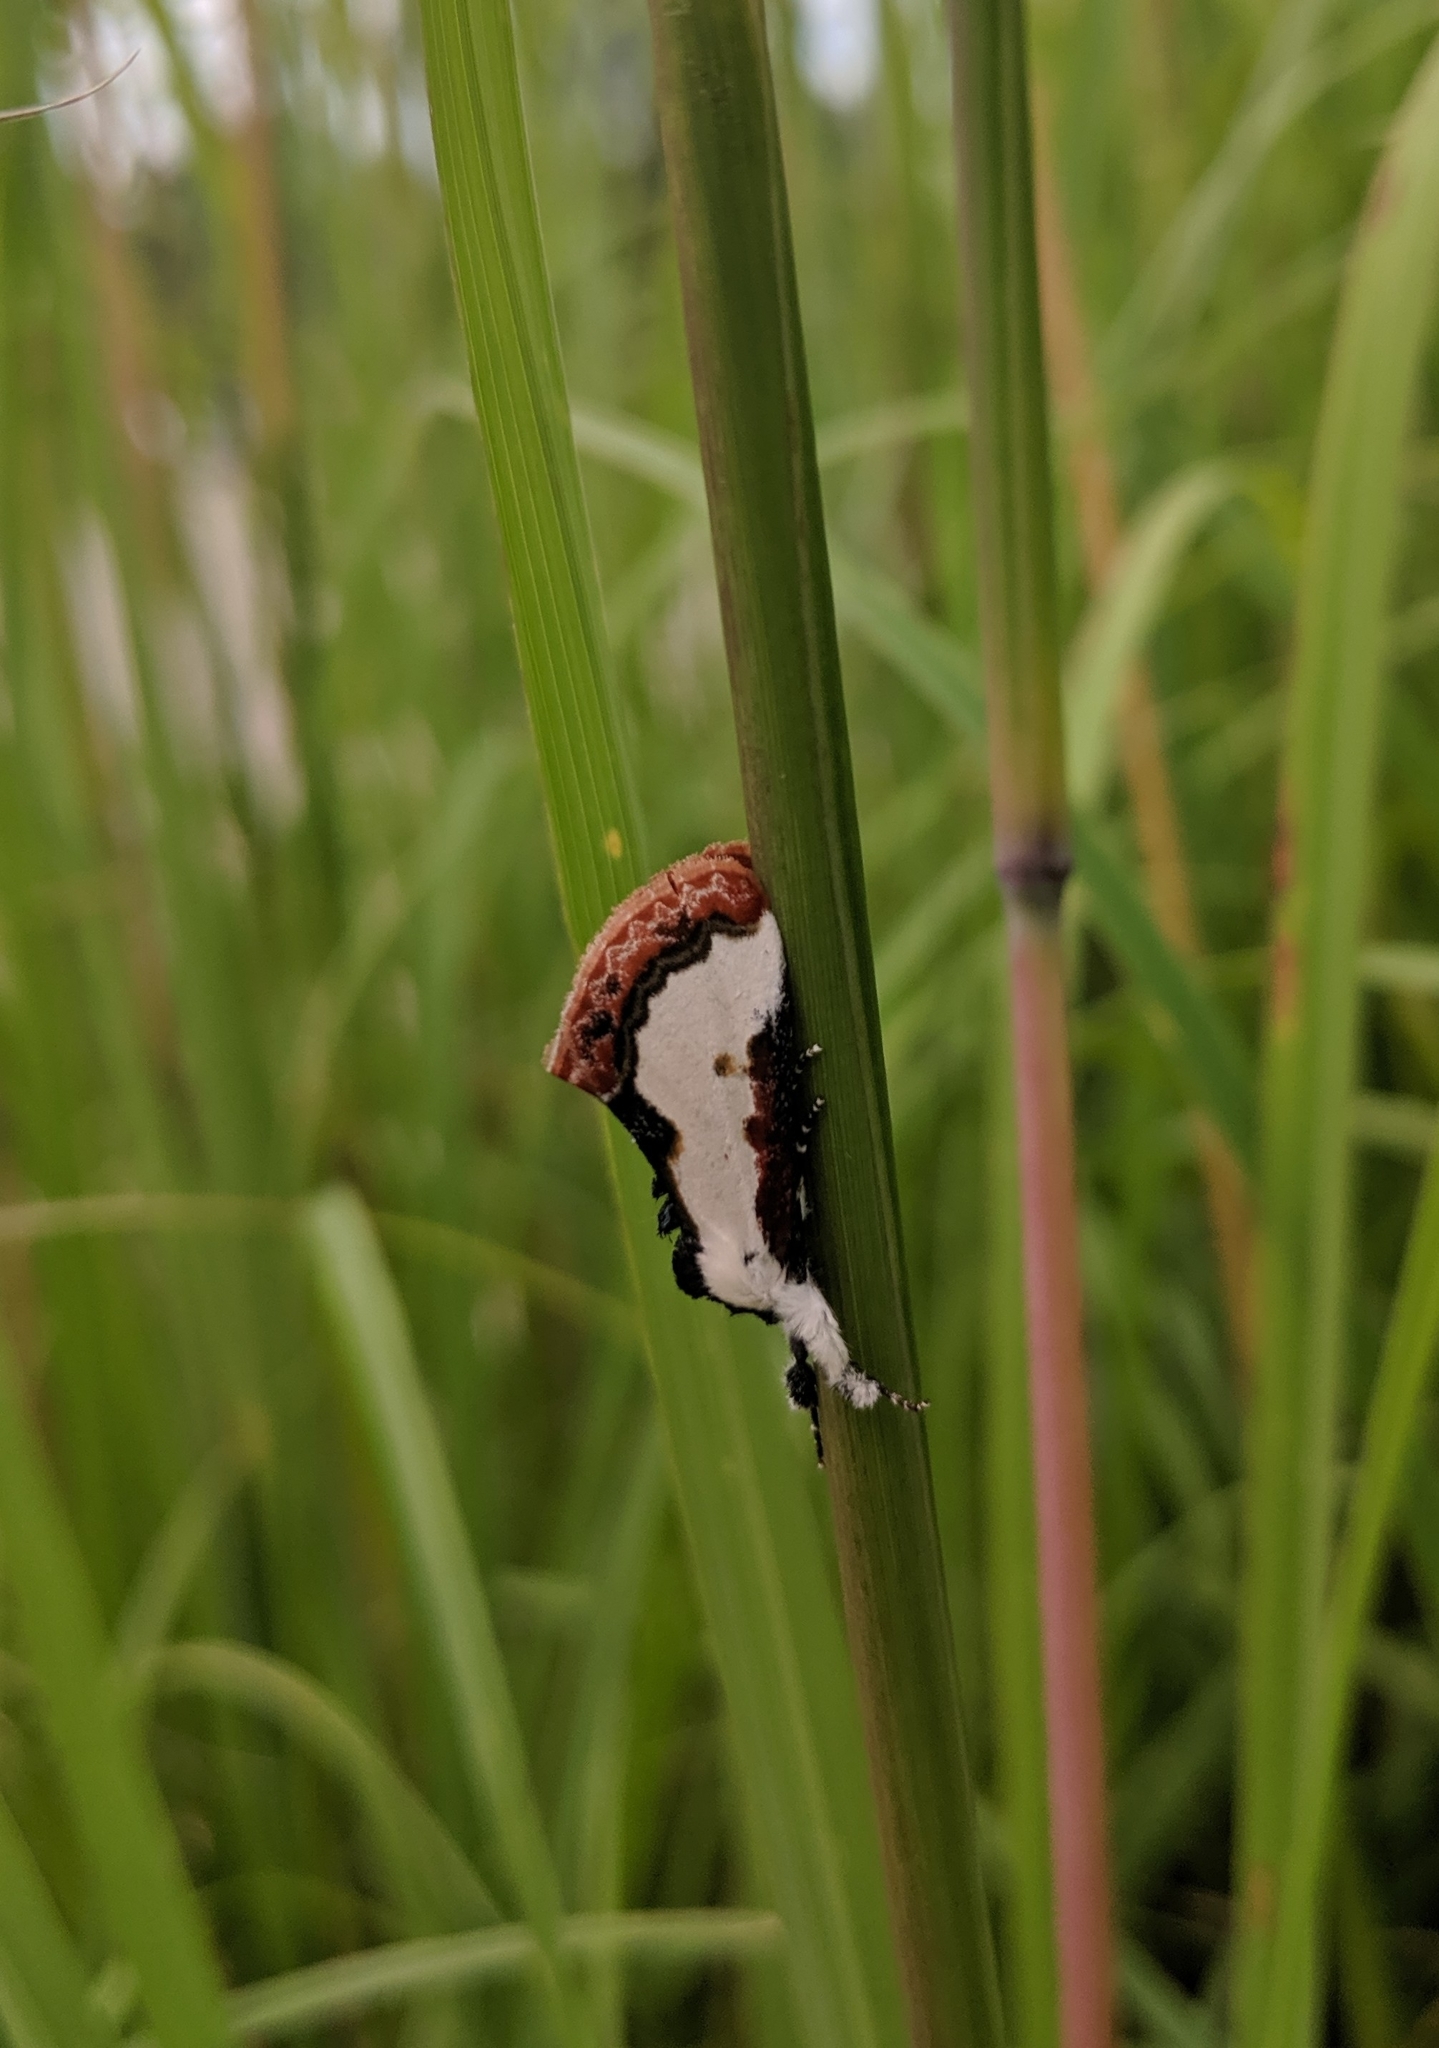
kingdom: Animalia
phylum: Arthropoda
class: Insecta
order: Lepidoptera
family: Noctuidae
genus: Eudryas
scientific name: Eudryas unio
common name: Pearly wood-nymph
